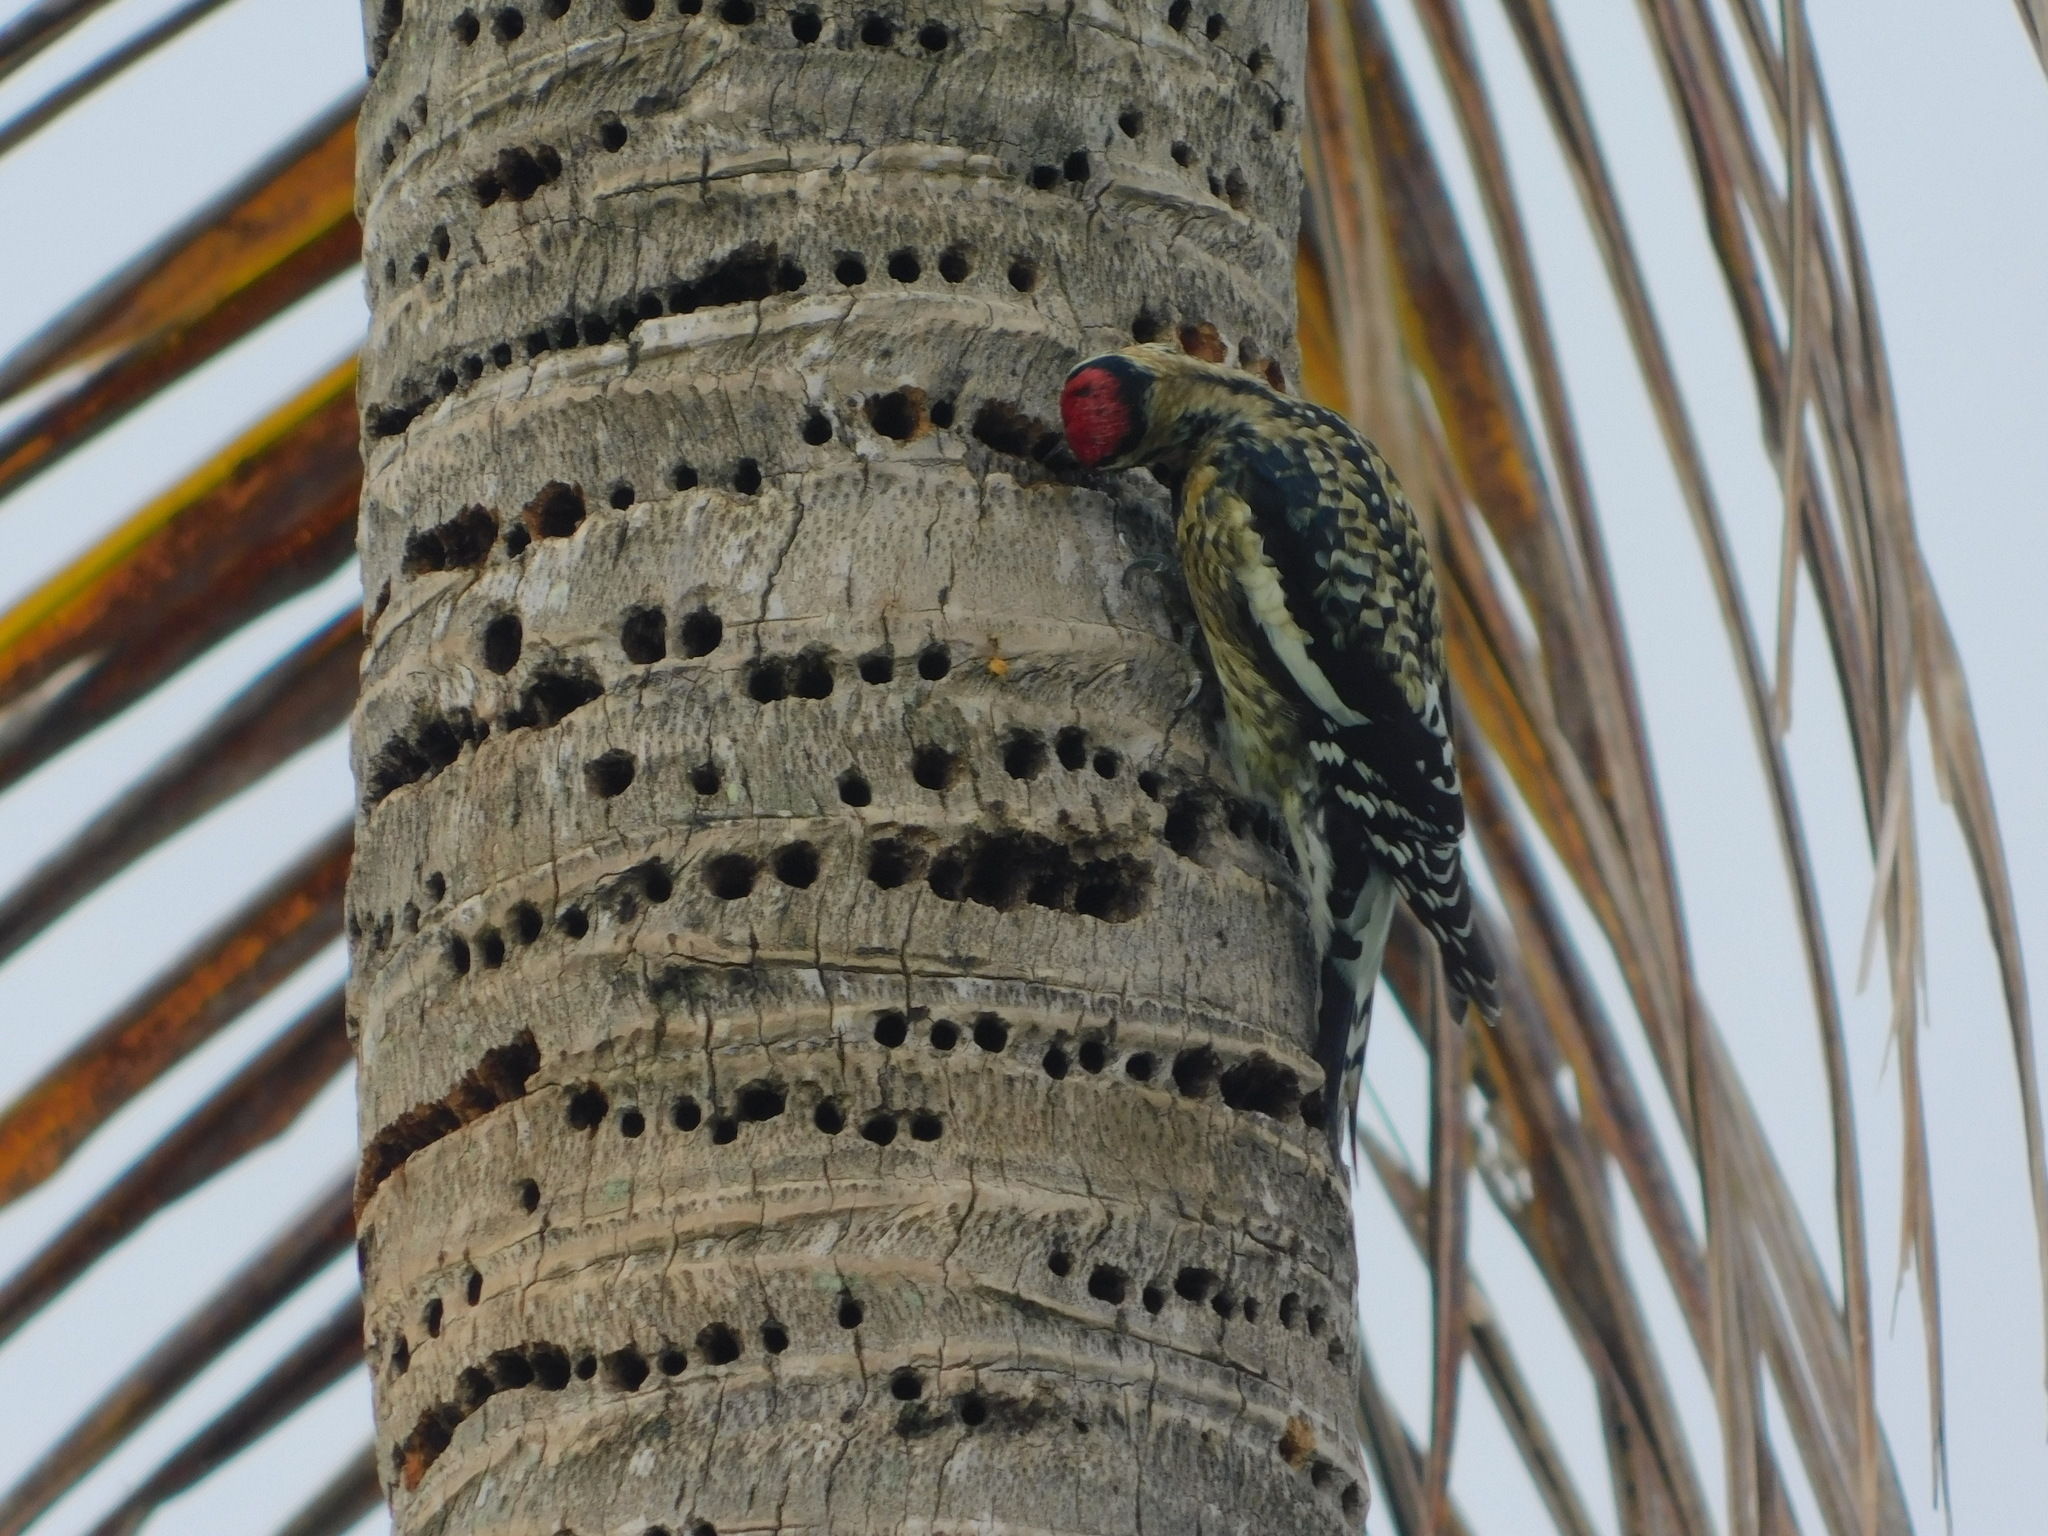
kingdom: Animalia
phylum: Chordata
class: Aves
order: Piciformes
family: Picidae
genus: Sphyrapicus
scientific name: Sphyrapicus varius
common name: Yellow-bellied sapsucker
